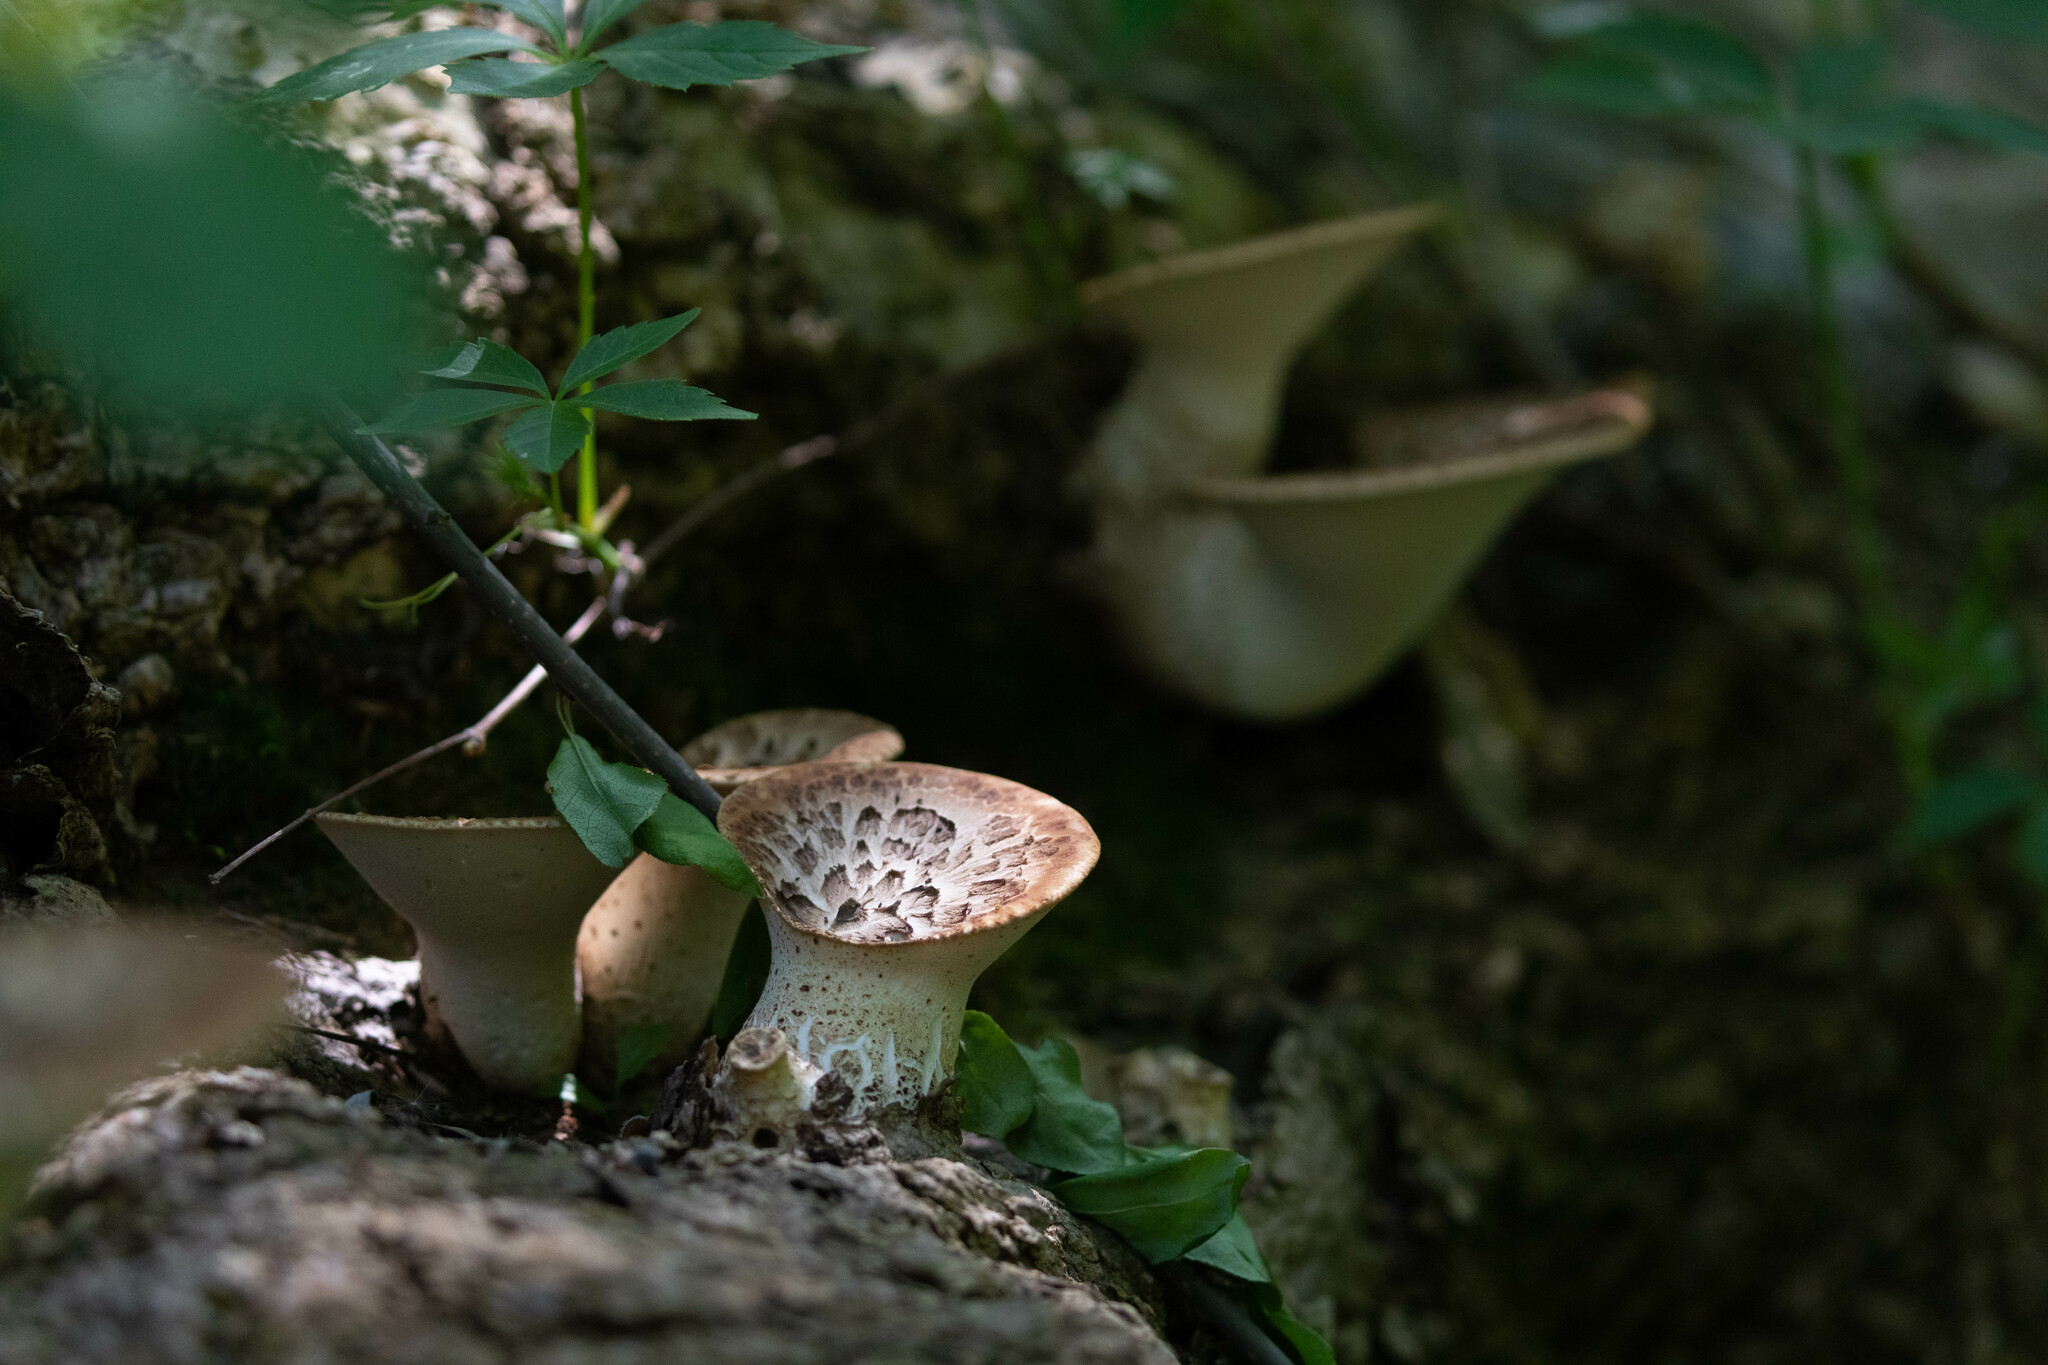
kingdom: Fungi
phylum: Basidiomycota
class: Agaricomycetes
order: Polyporales
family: Polyporaceae
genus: Cerioporus
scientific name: Cerioporus squamosus
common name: Dryad's saddle
